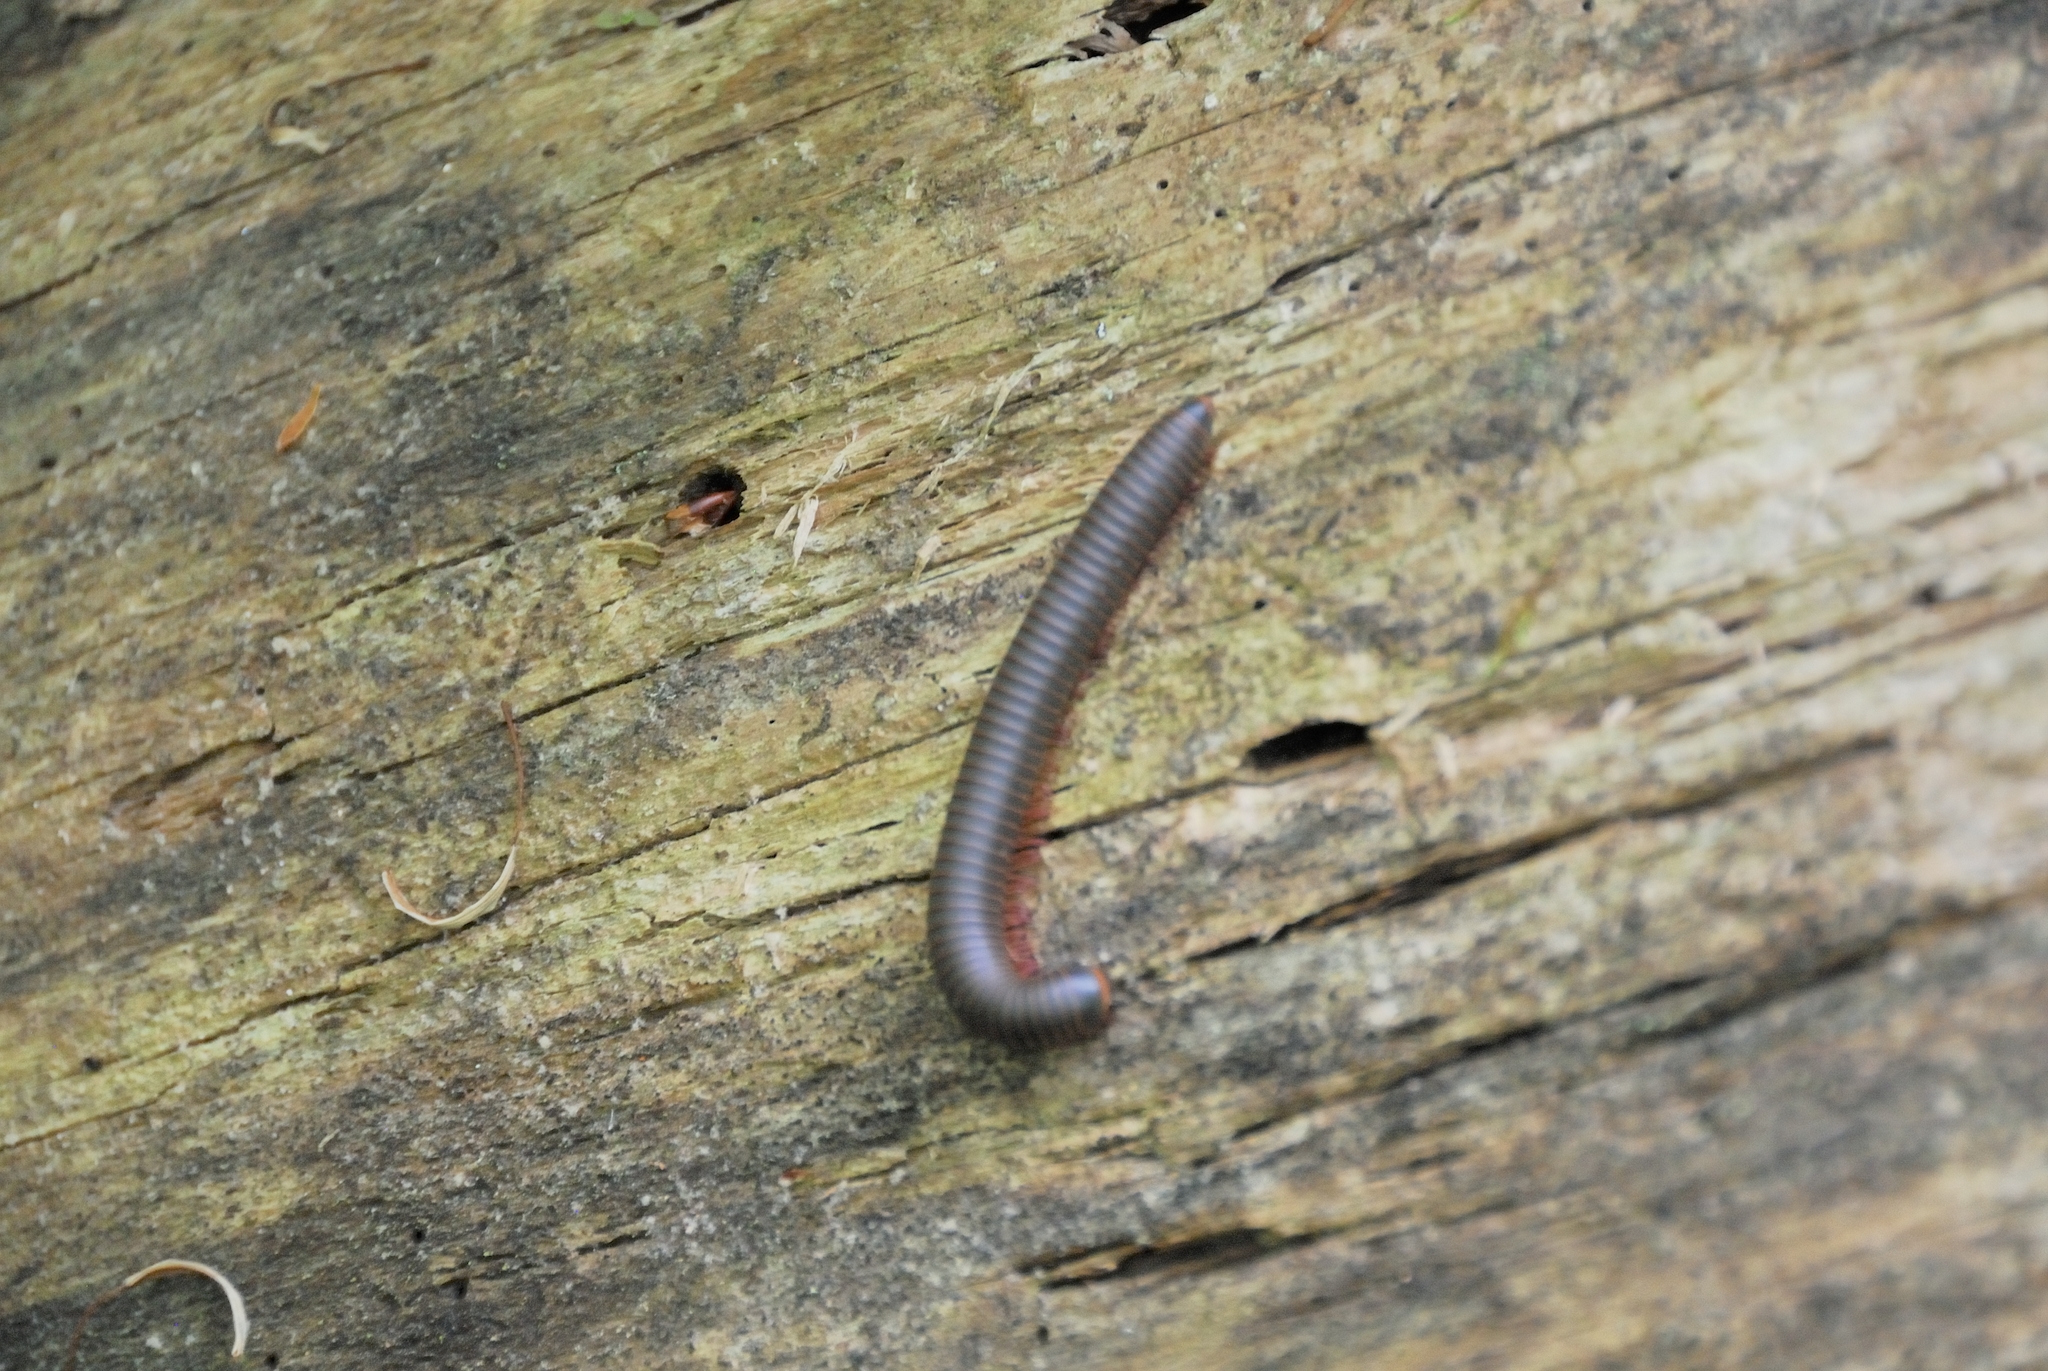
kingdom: Animalia
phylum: Arthropoda
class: Diplopoda
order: Spirobolida
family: Spirobolidae
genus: Narceus
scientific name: Narceus
